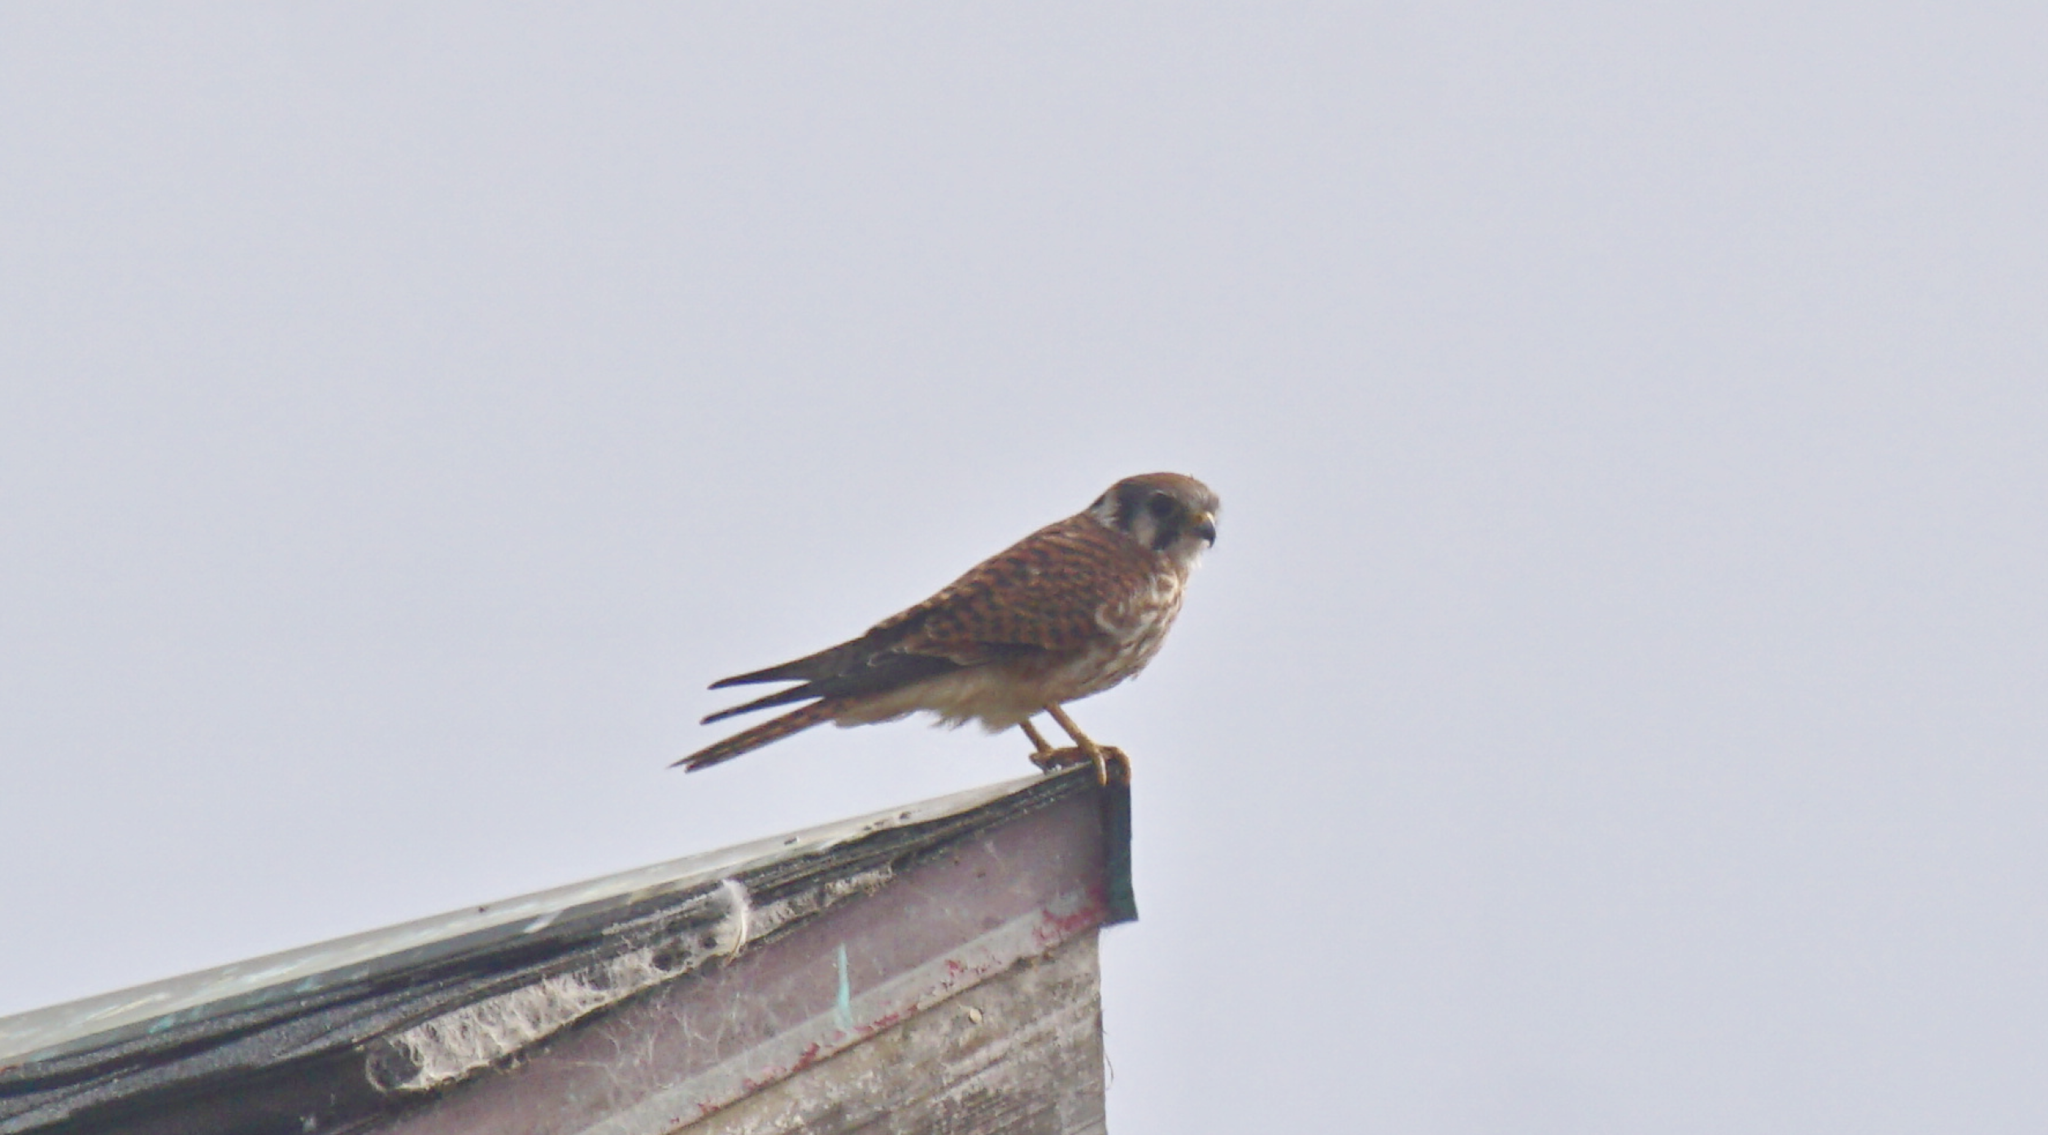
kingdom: Animalia
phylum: Chordata
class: Aves
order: Falconiformes
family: Falconidae
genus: Falco
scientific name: Falco sparverius
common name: American kestrel
